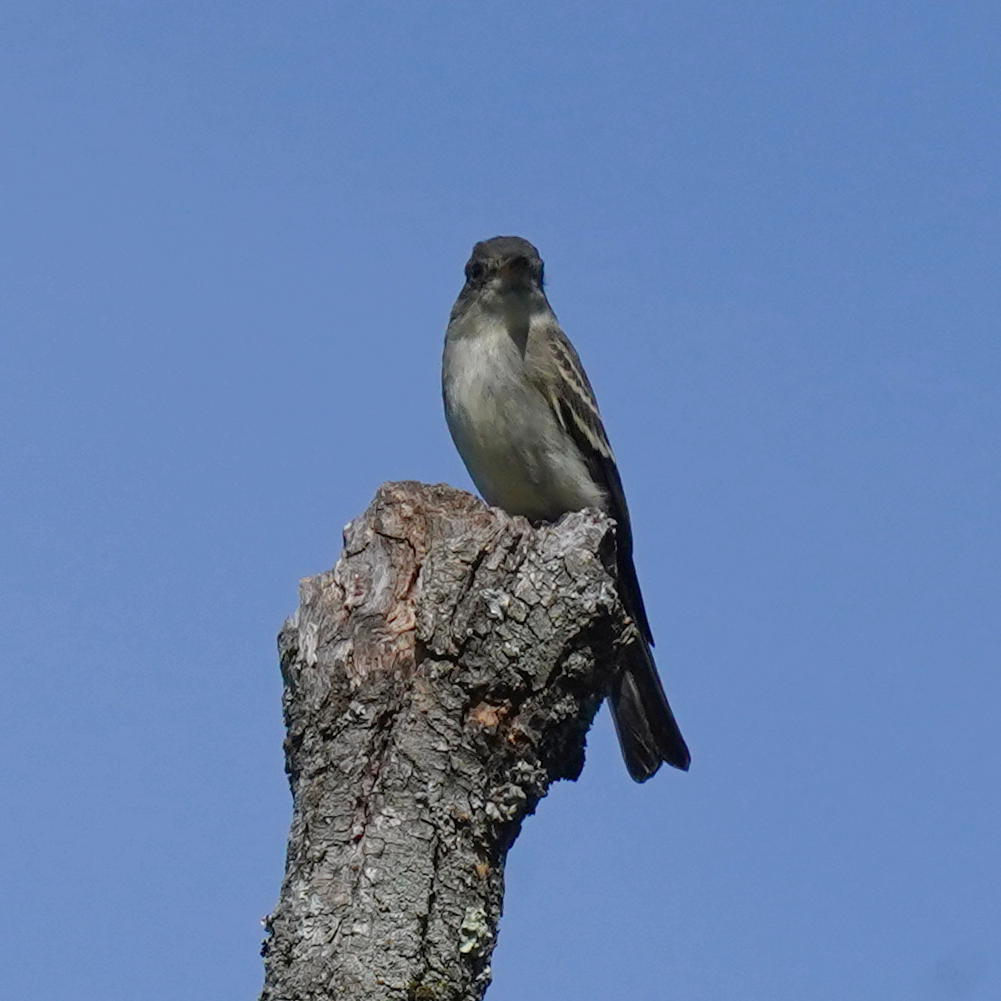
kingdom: Animalia
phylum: Chordata
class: Aves
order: Passeriformes
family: Tyrannidae
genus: Contopus
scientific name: Contopus virens
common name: Eastern wood-pewee
